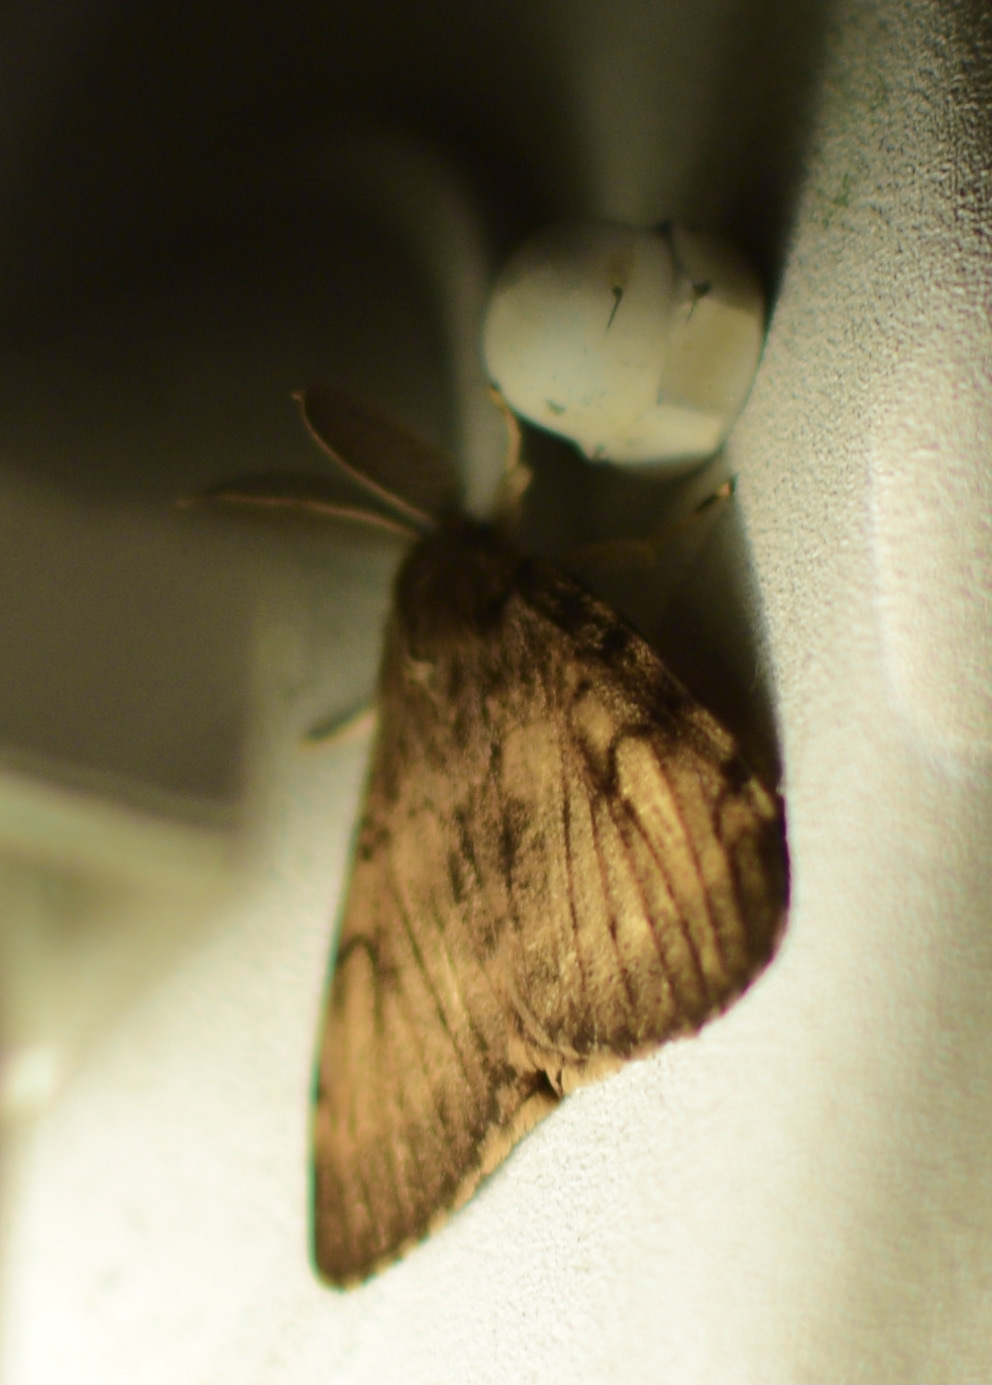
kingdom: Animalia
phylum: Arthropoda
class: Insecta
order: Lepidoptera
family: Erebidae
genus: Lymantria
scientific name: Lymantria dispar
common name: Gypsy moth
